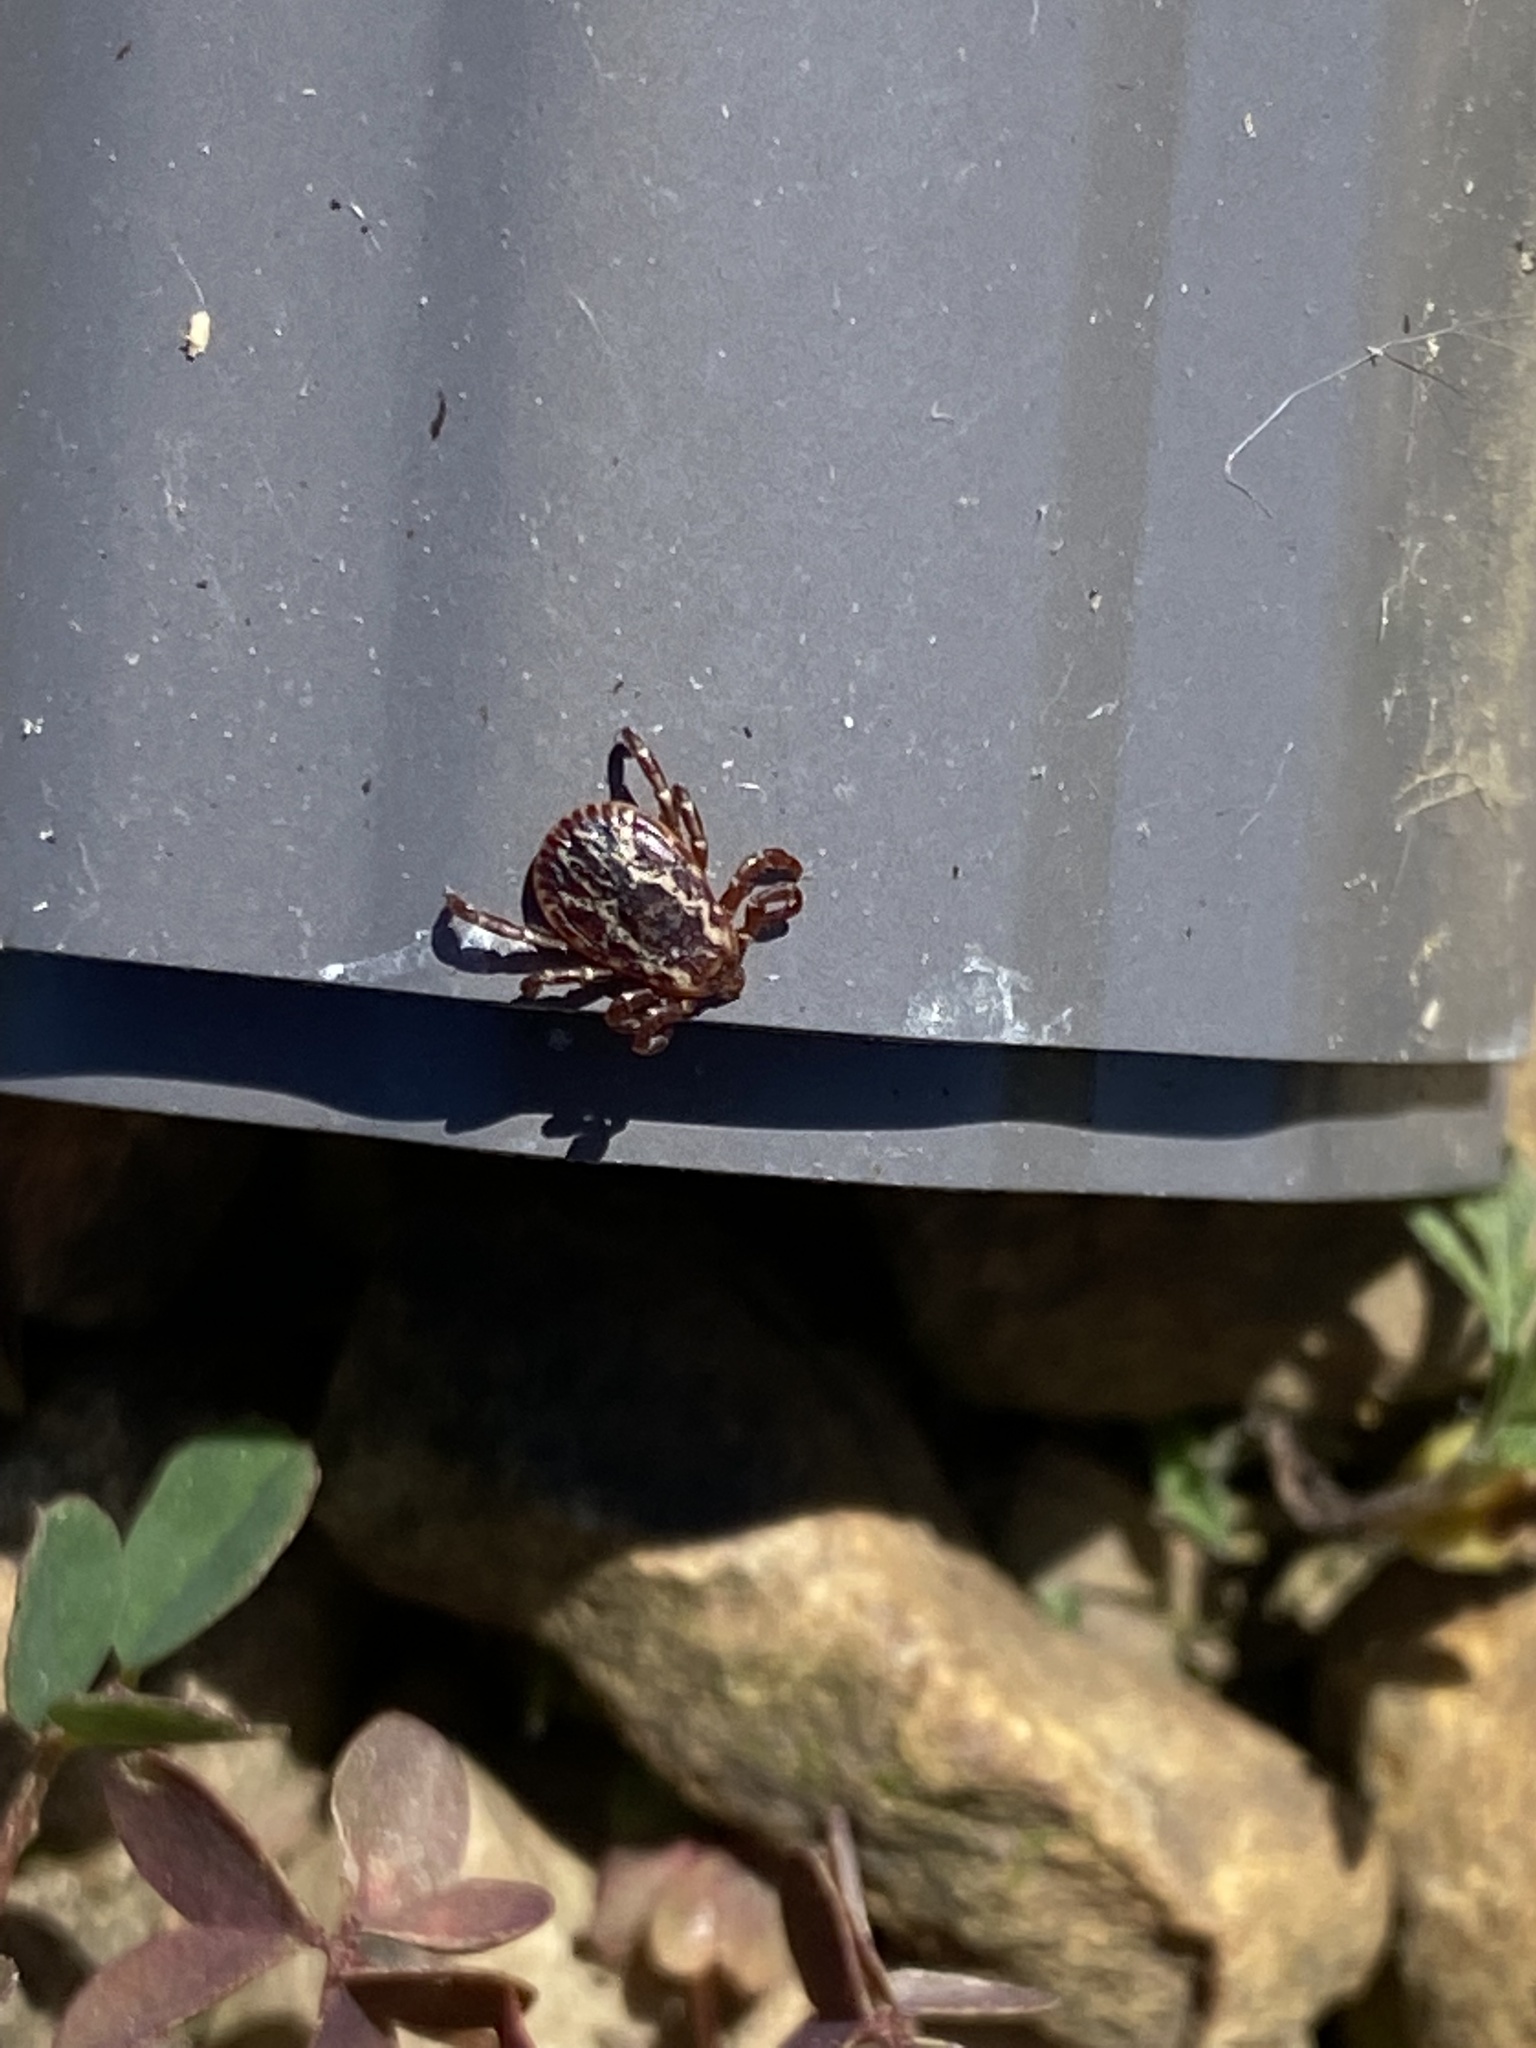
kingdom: Animalia
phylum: Arthropoda
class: Arachnida
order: Ixodida
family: Ixodidae
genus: Dermacentor
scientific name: Dermacentor variabilis
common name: American dog tick
